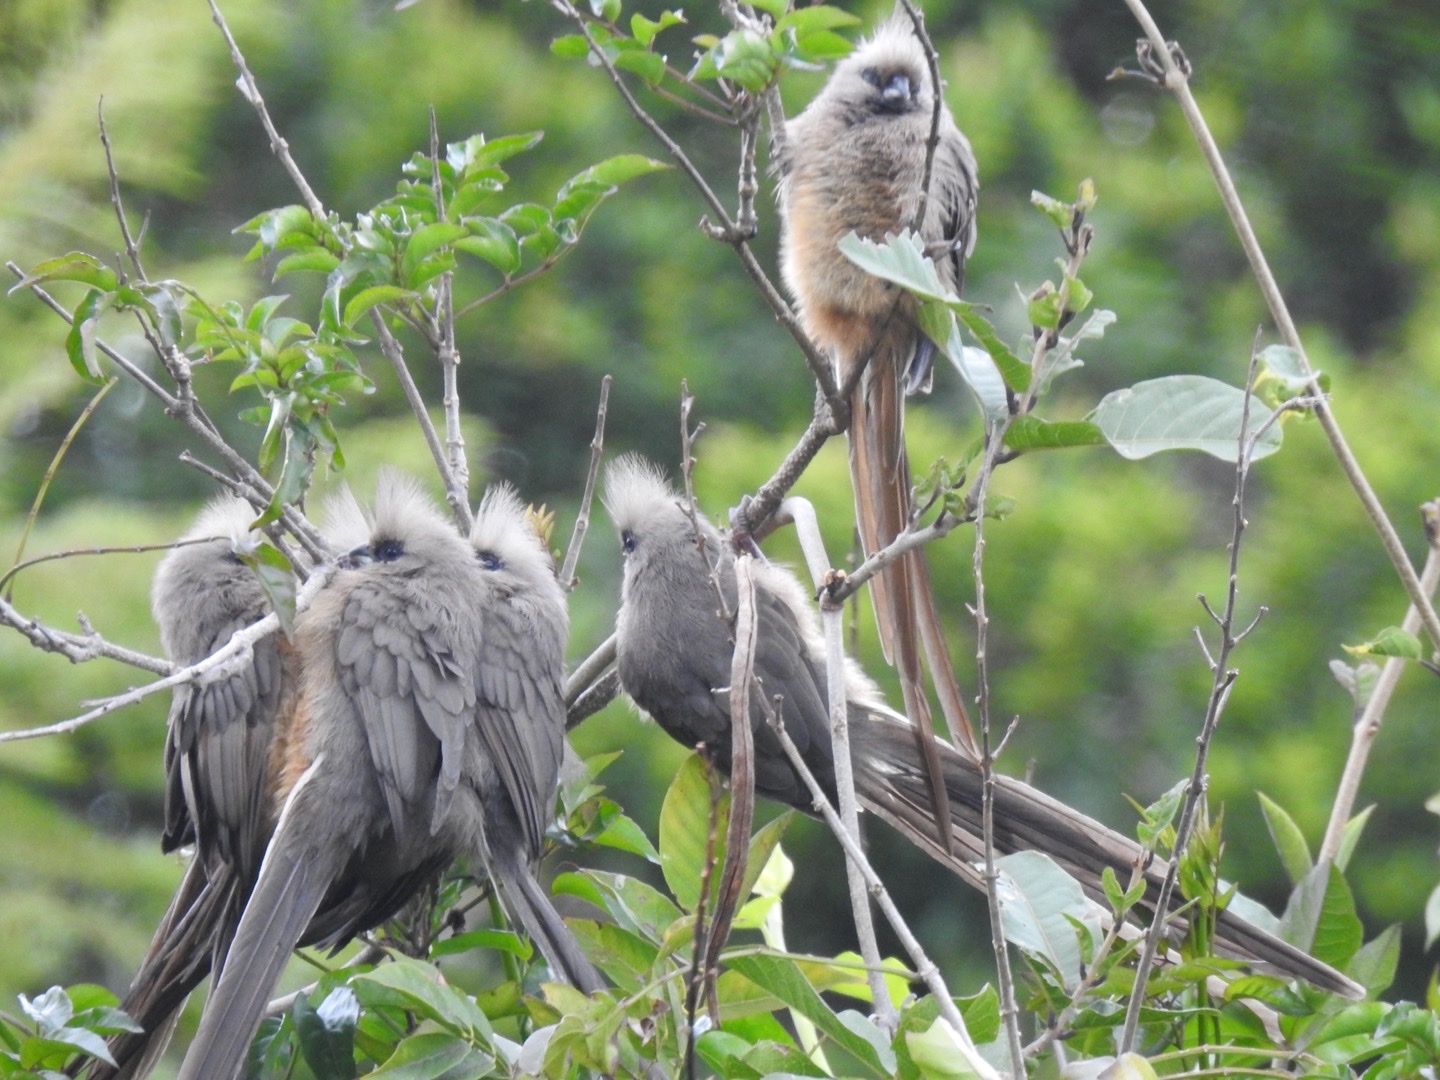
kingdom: Animalia
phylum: Chordata
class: Aves
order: Coliiformes
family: Coliidae
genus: Colius
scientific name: Colius striatus
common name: Speckled mousebird
